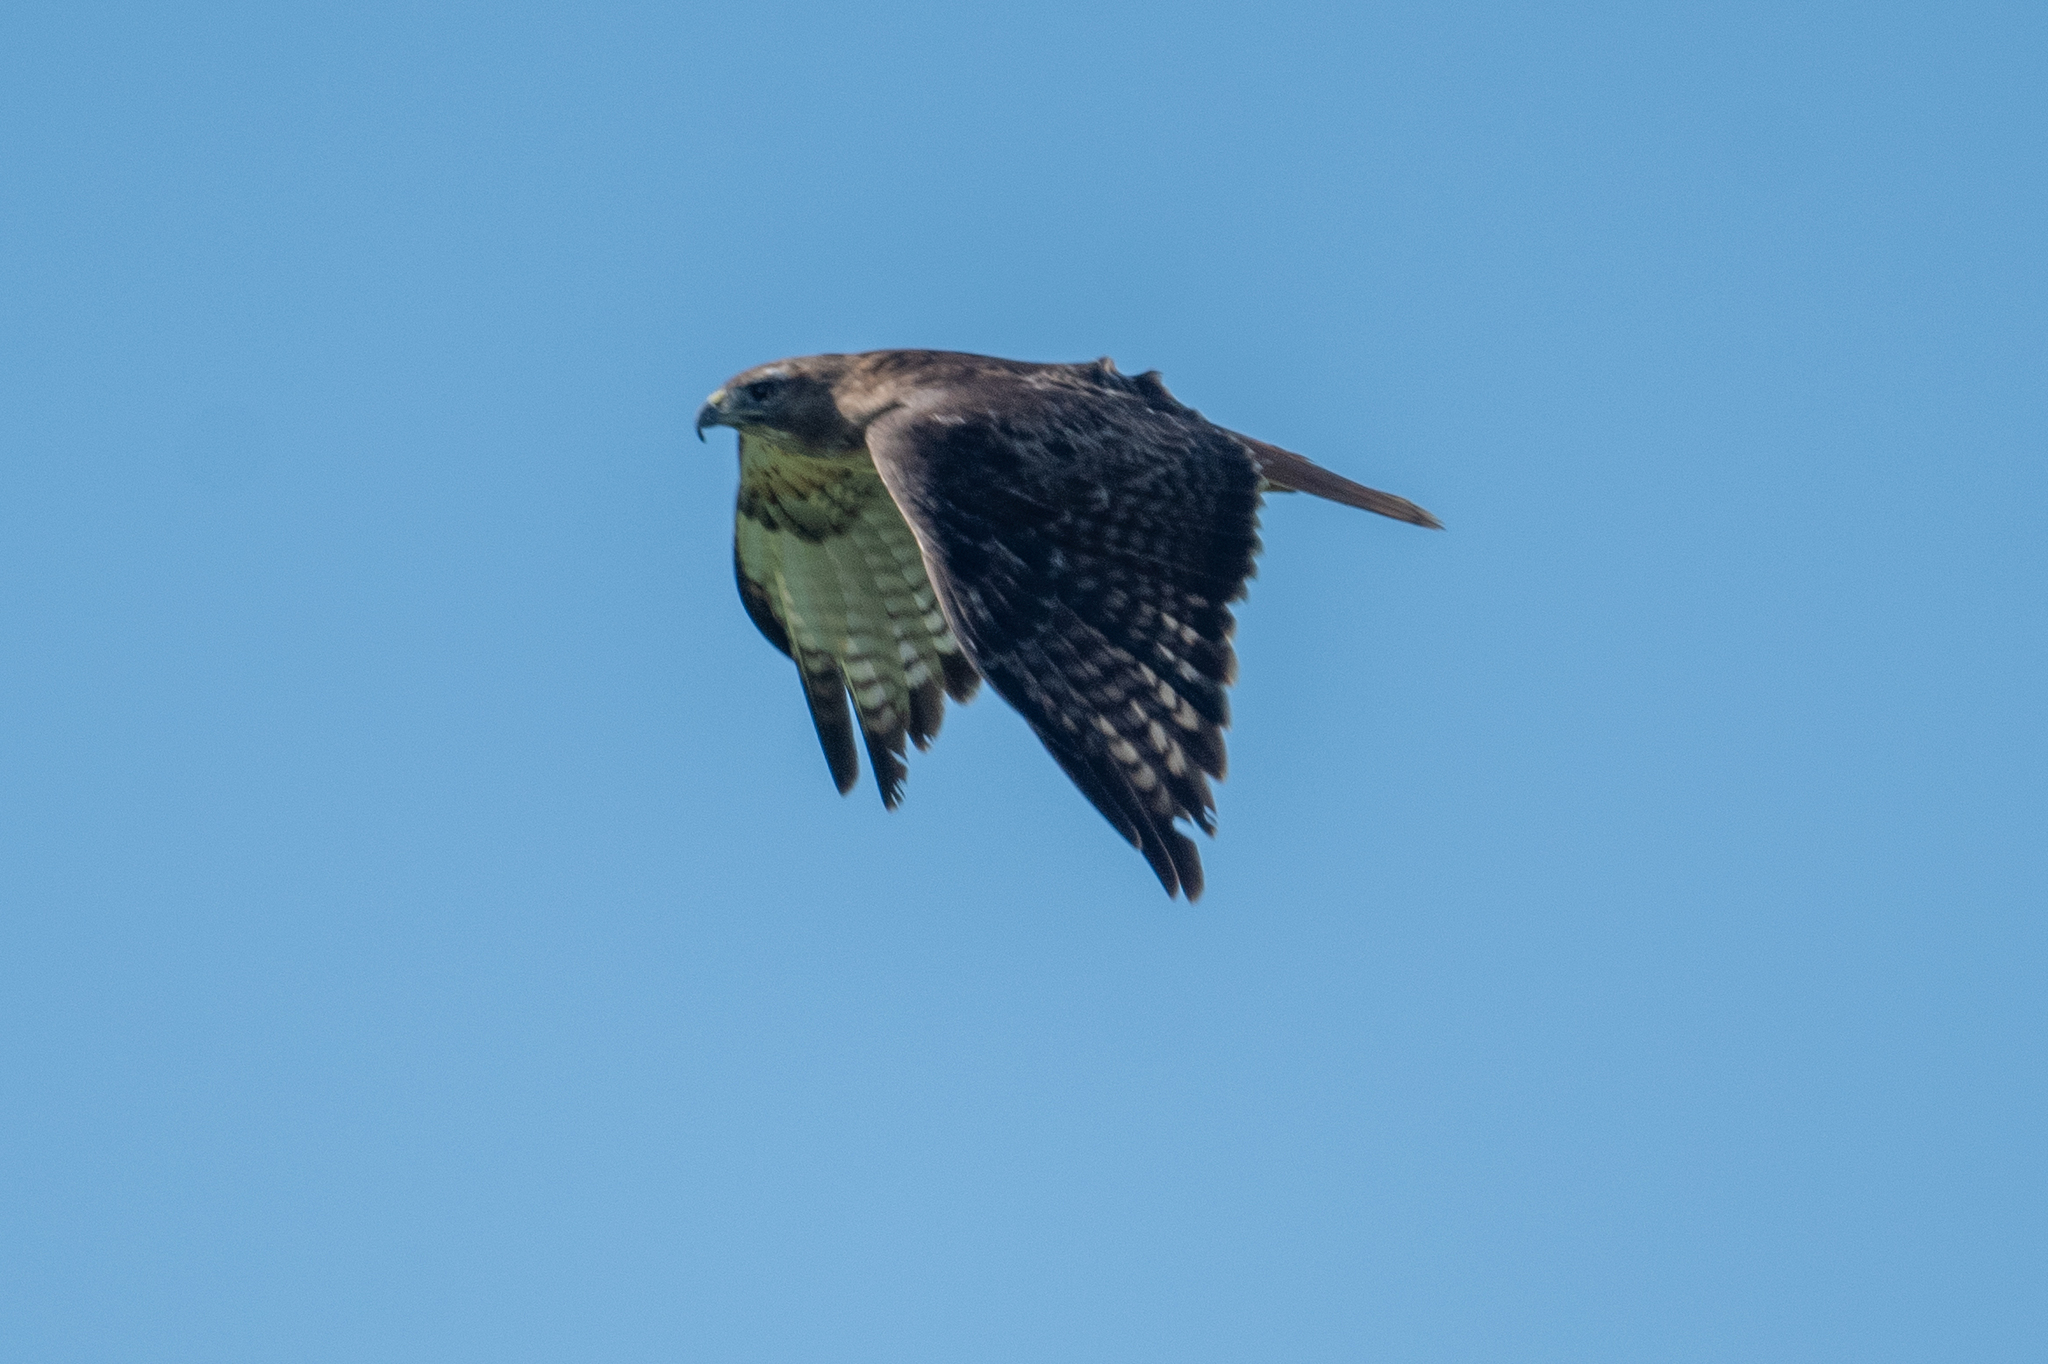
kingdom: Animalia
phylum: Chordata
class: Aves
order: Accipitriformes
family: Accipitridae
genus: Buteo
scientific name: Buteo jamaicensis
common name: Red-tailed hawk
